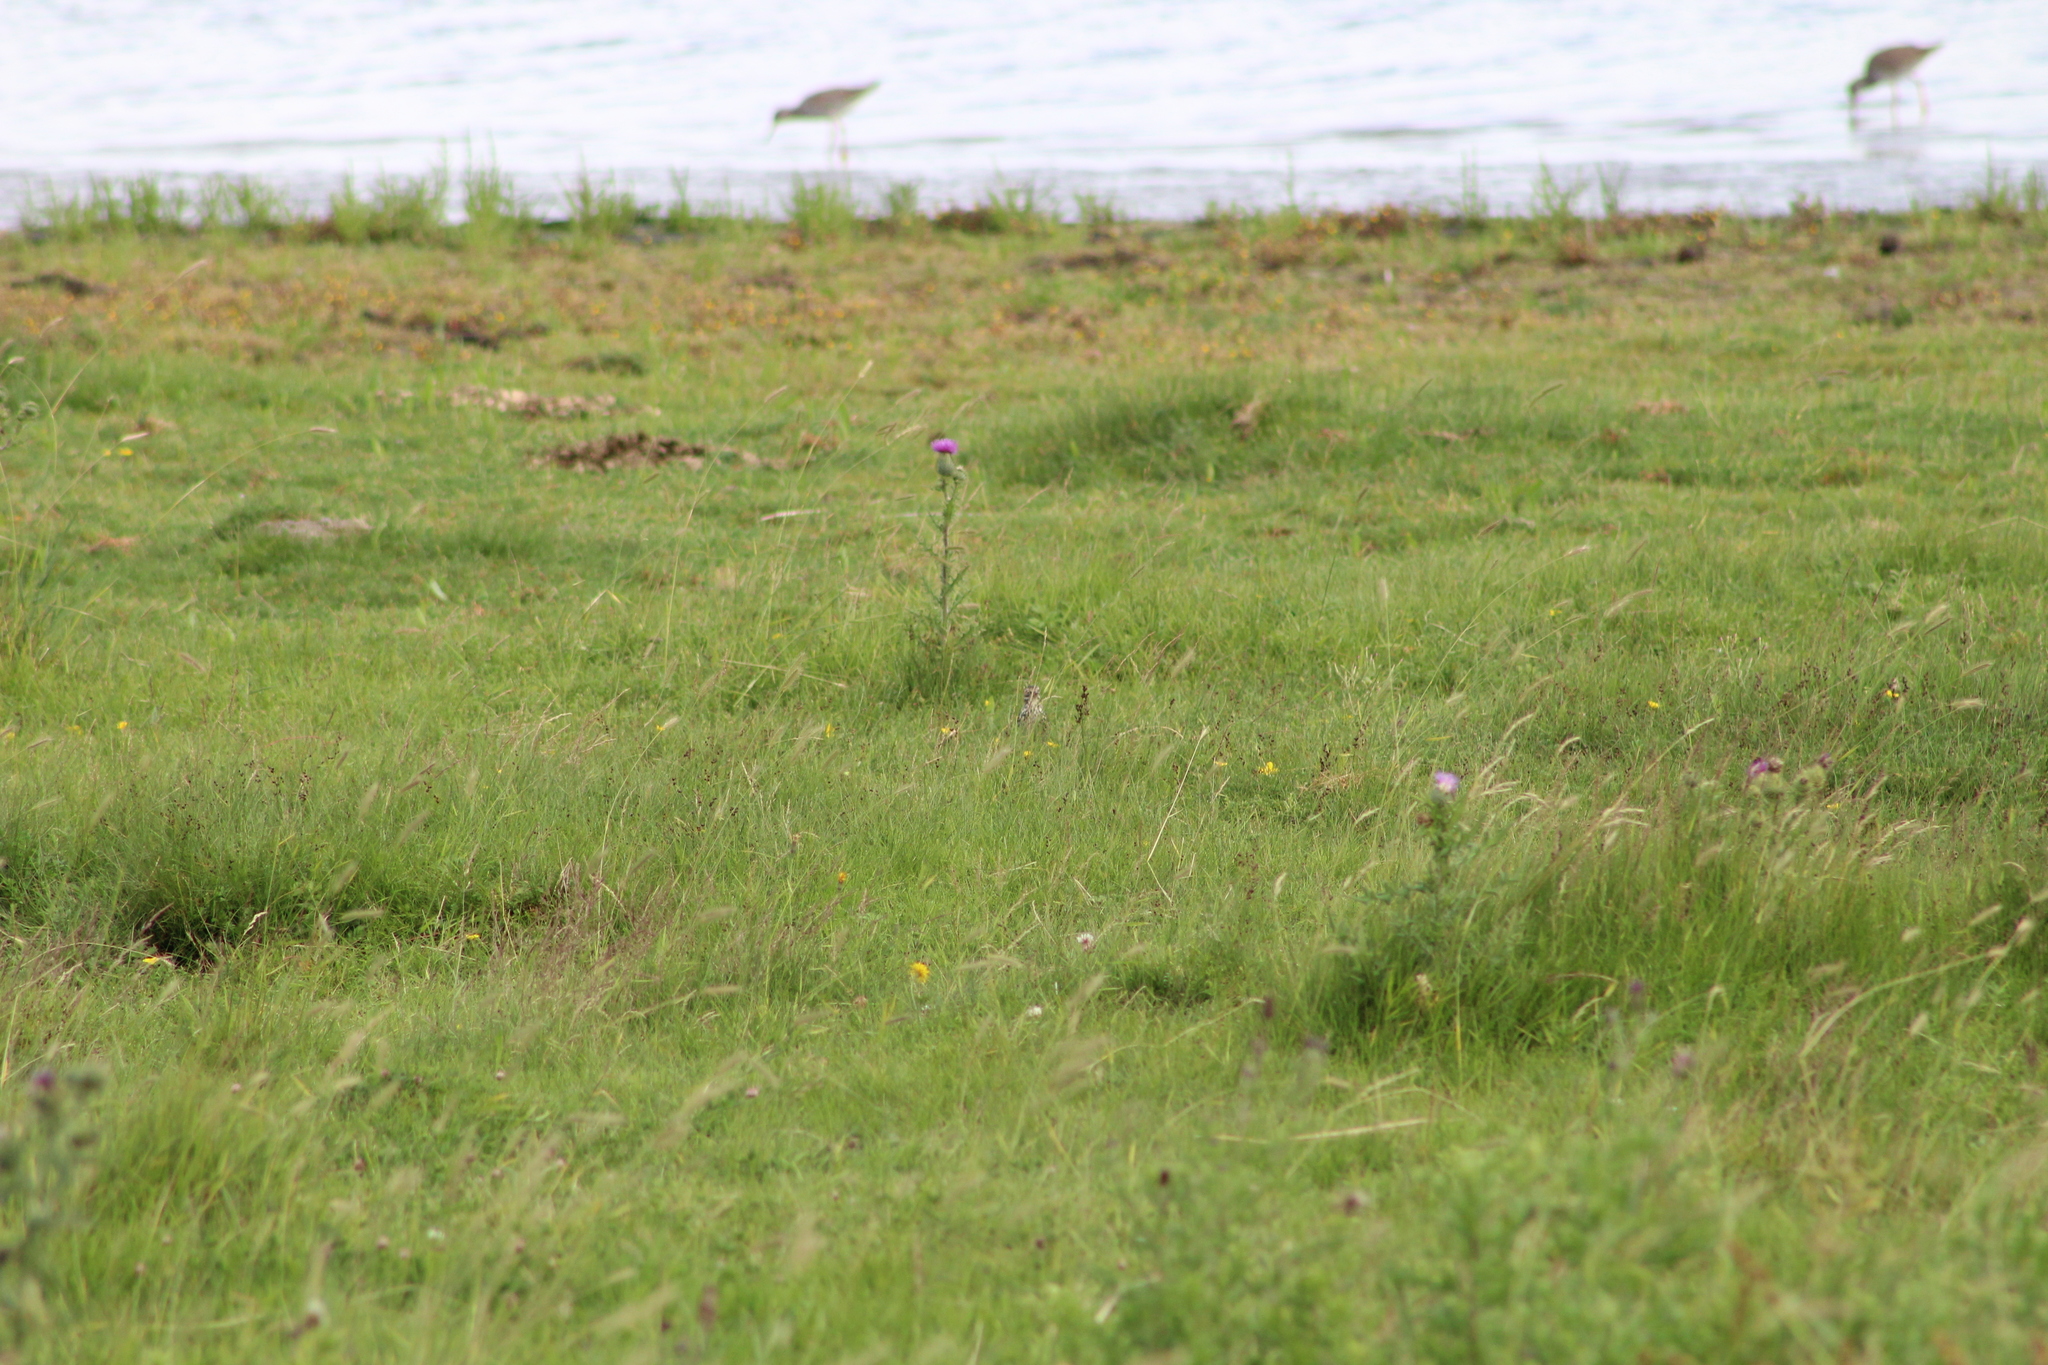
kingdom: Animalia
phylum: Chordata
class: Aves
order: Passeriformes
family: Motacillidae
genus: Anthus
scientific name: Anthus pratensis
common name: Meadow pipit
